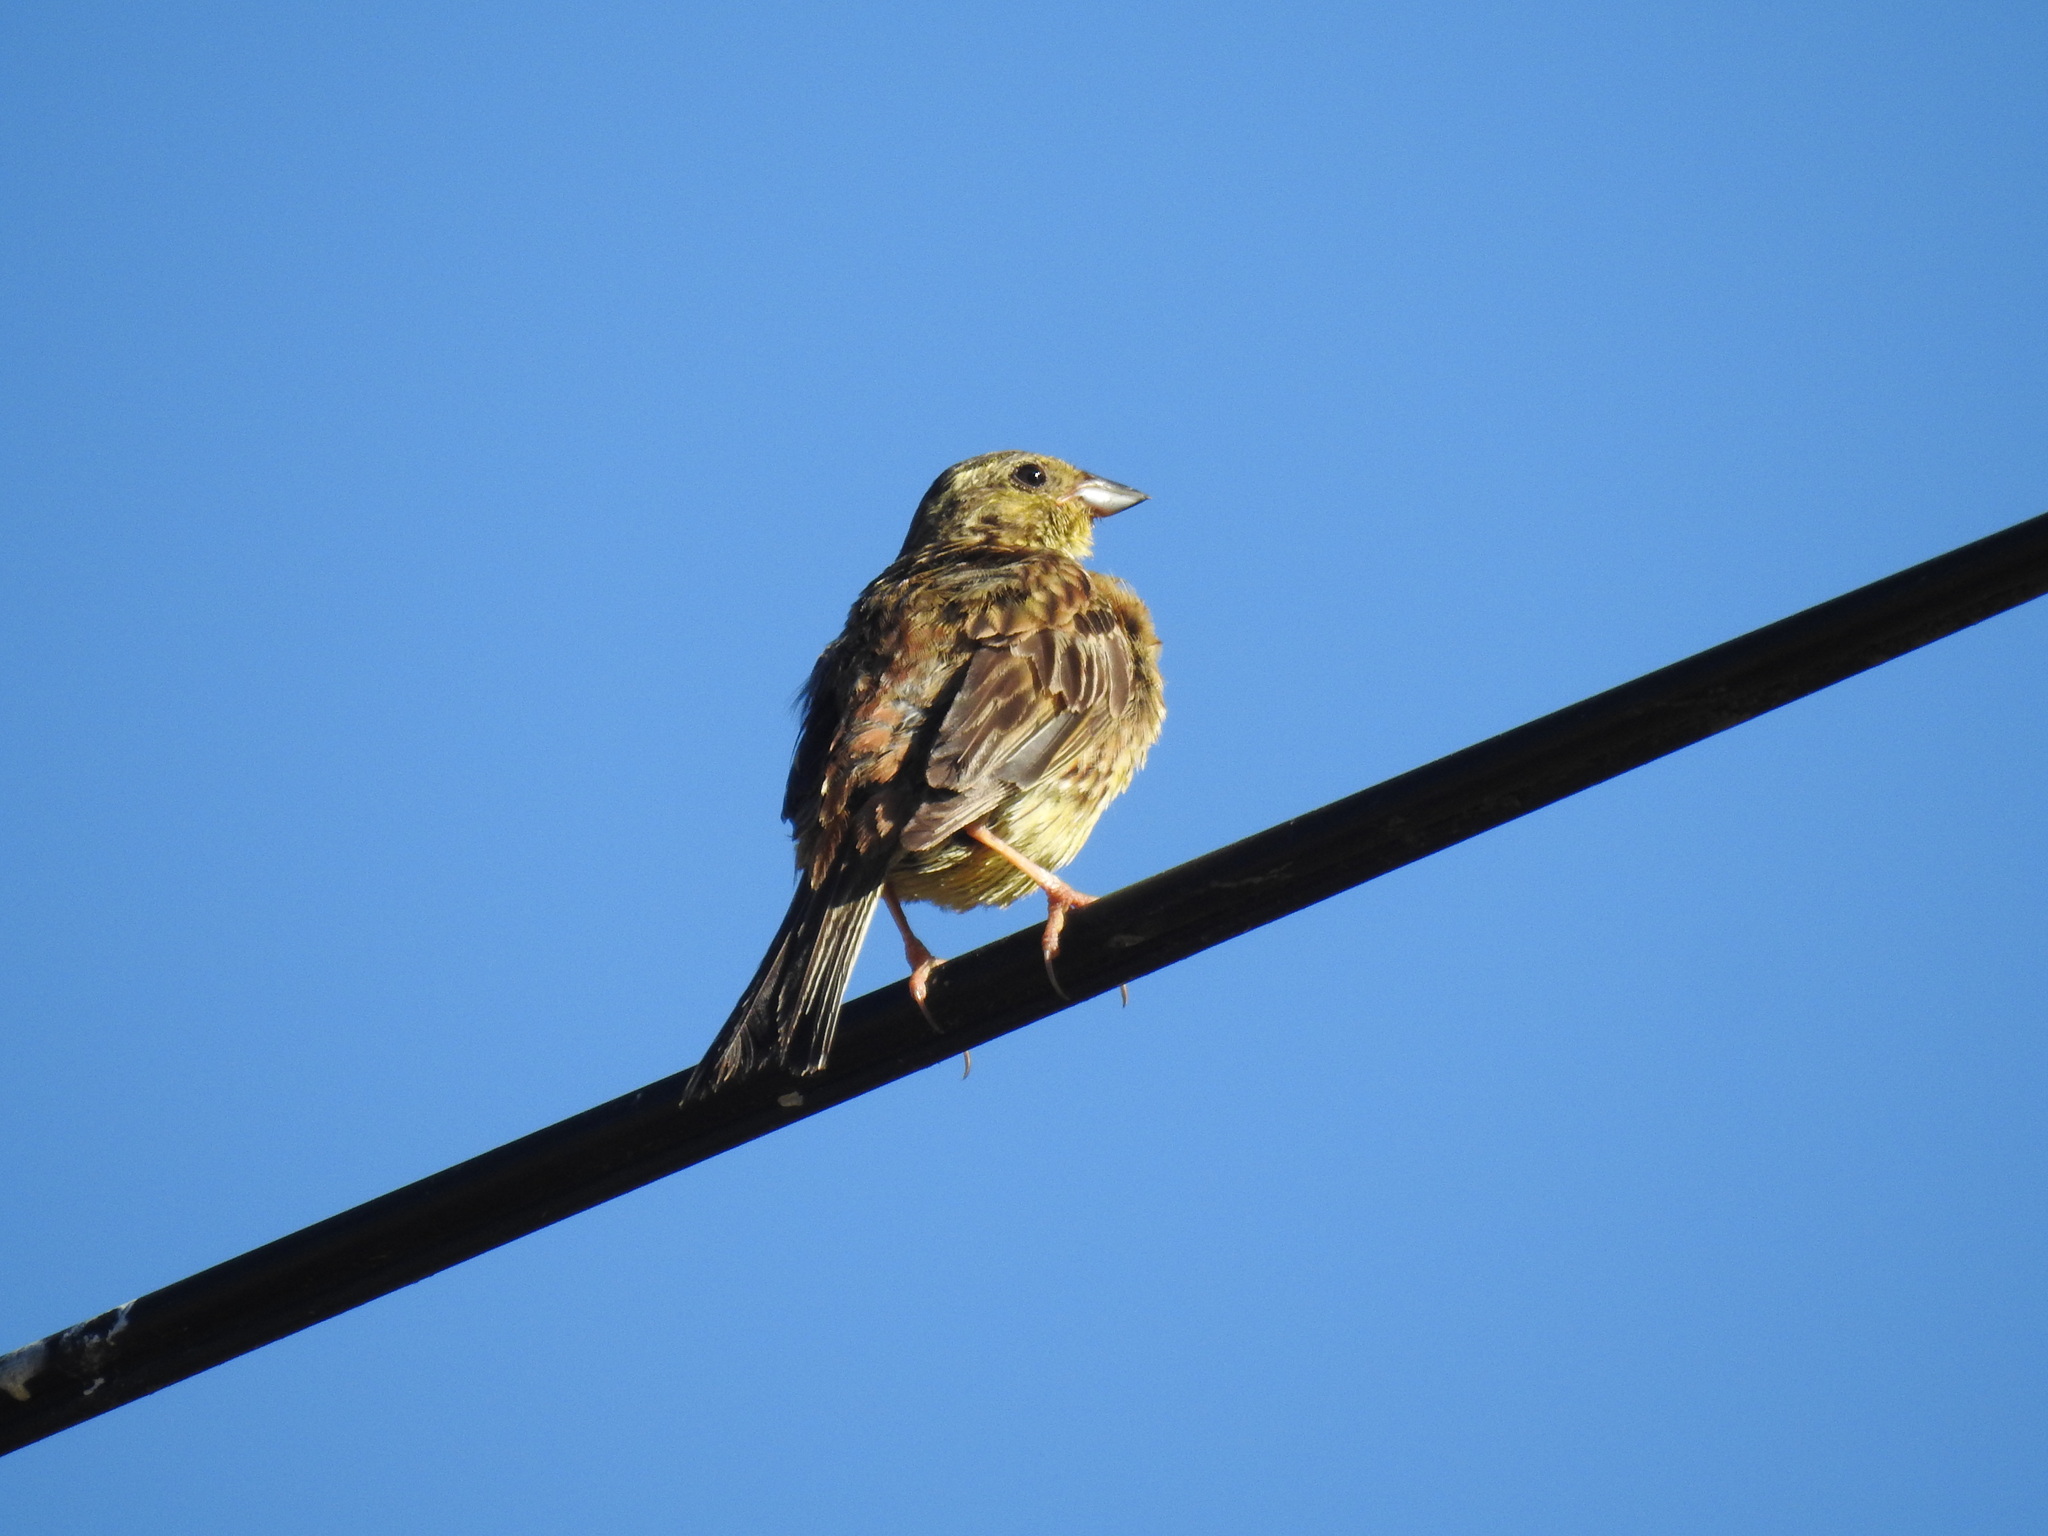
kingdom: Animalia
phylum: Chordata
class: Aves
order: Passeriformes
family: Emberizidae
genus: Emberiza
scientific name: Emberiza citrinella
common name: Yellowhammer
